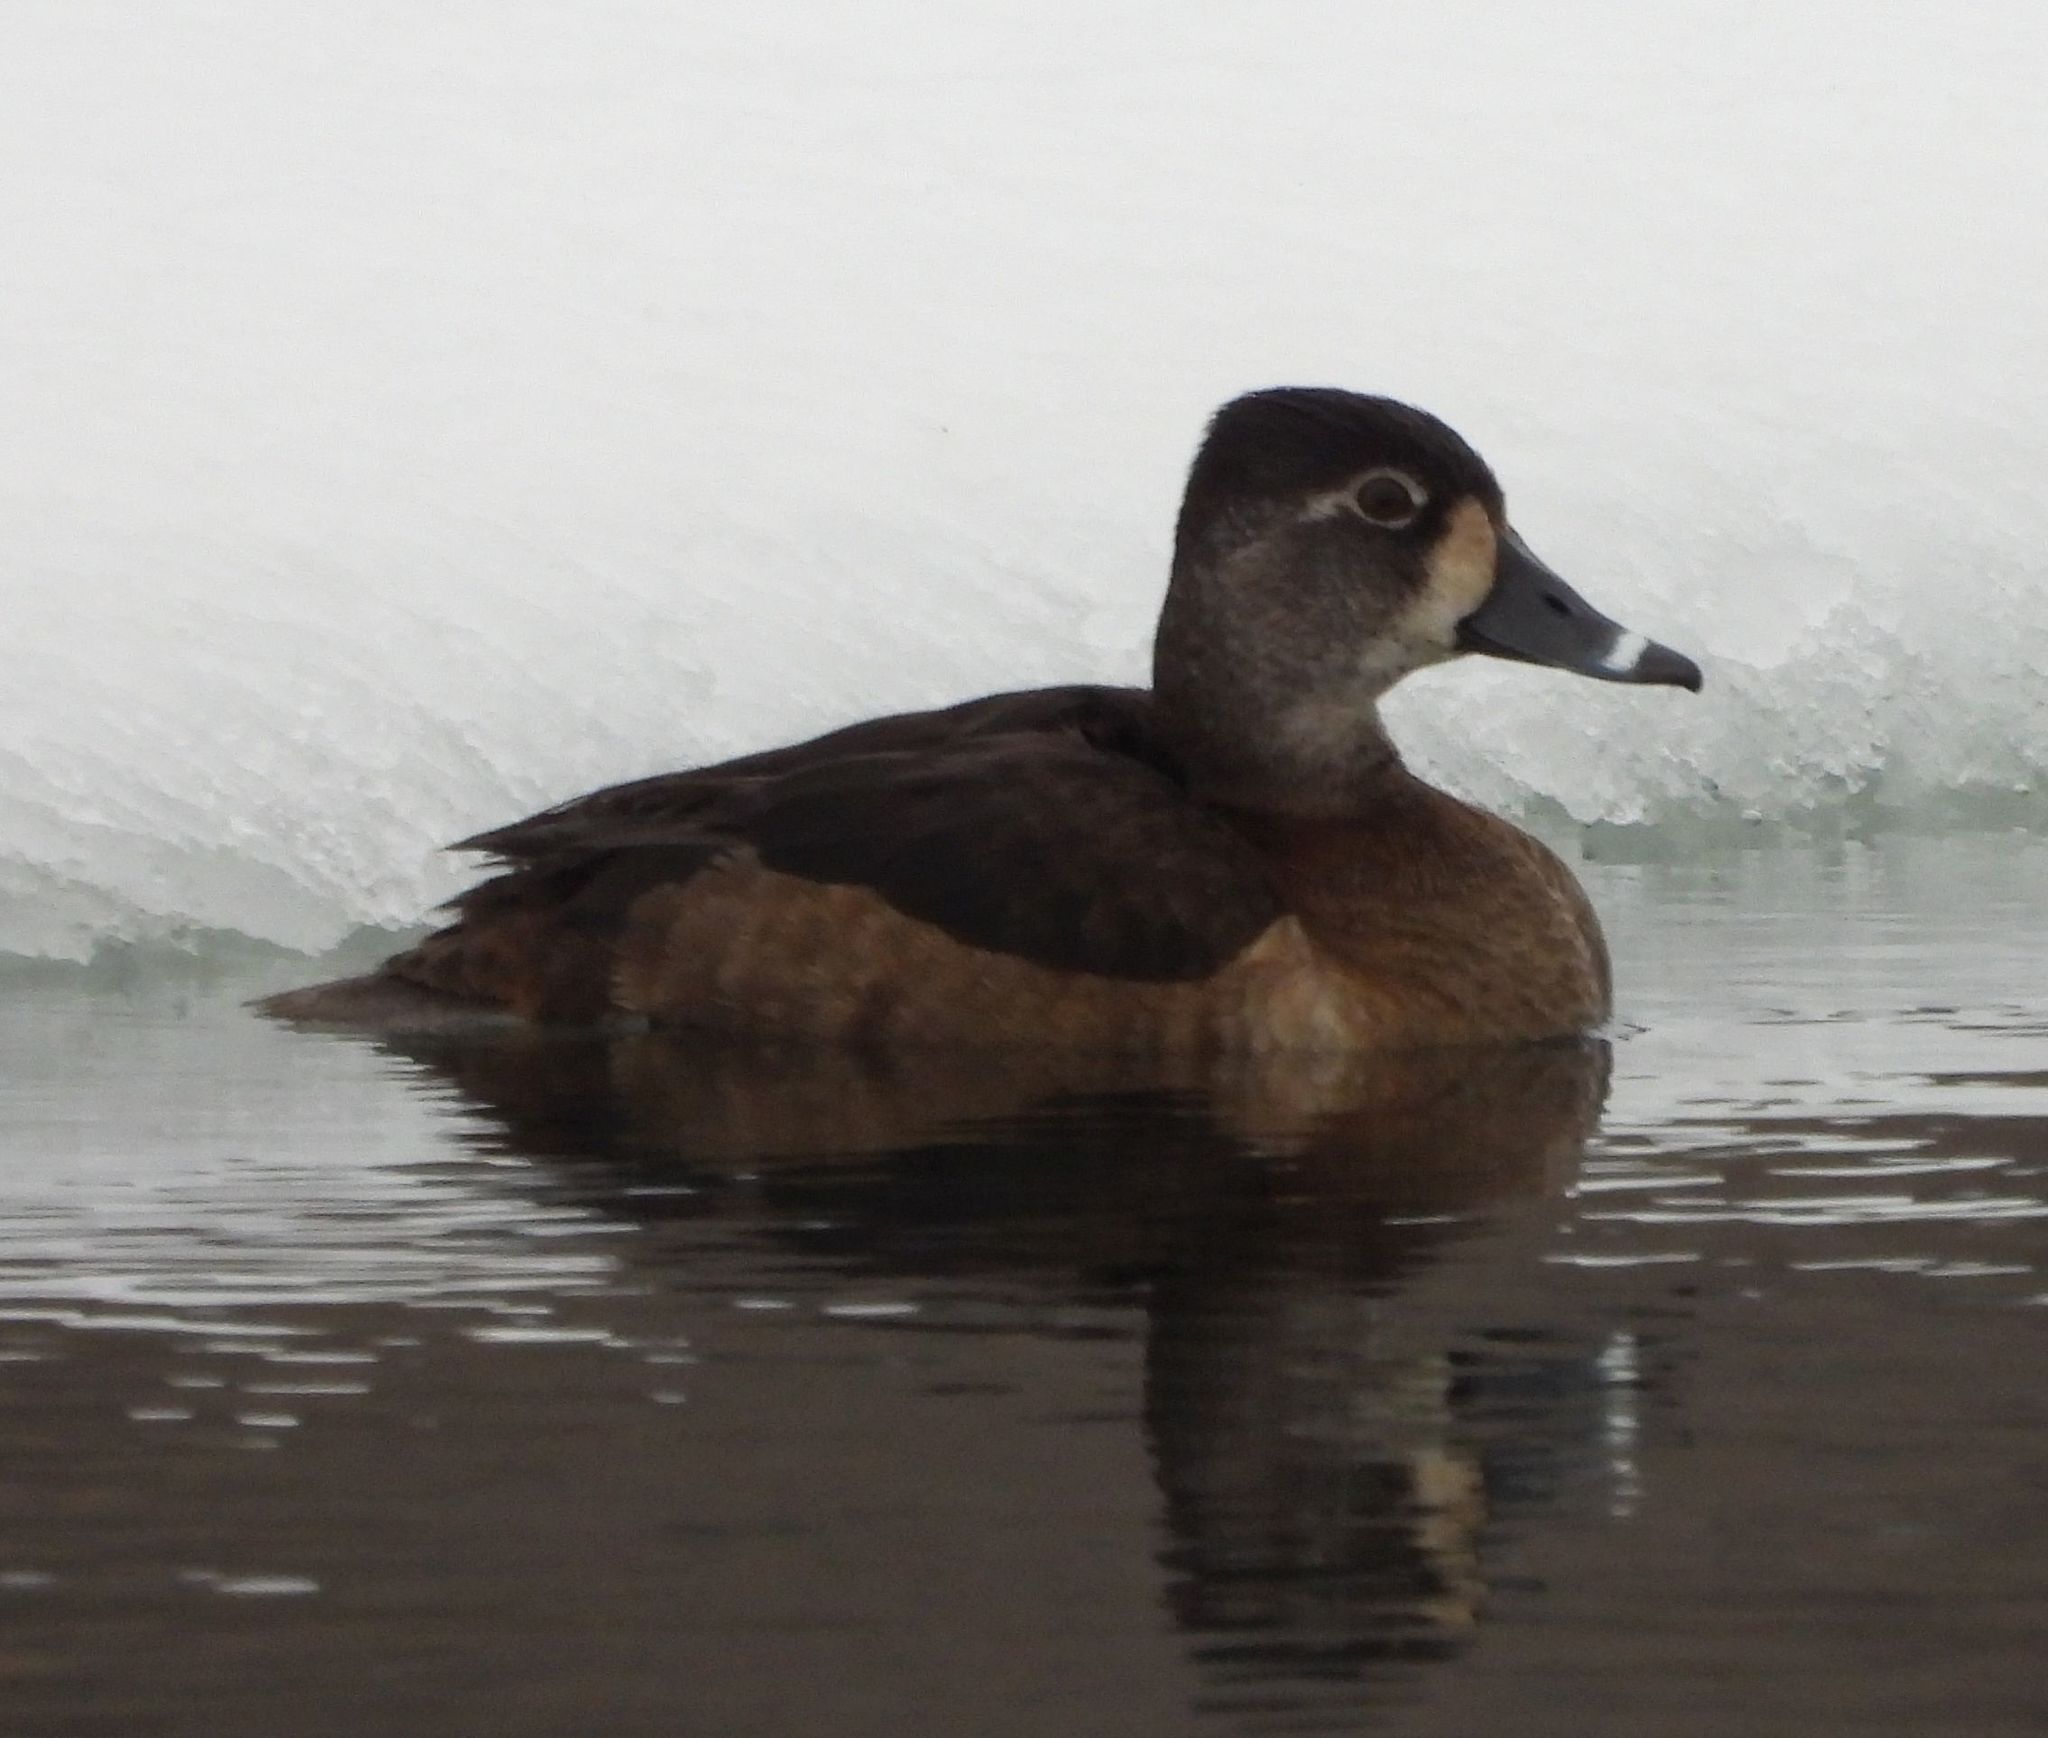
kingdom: Animalia
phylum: Chordata
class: Aves
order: Anseriformes
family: Anatidae
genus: Aythya
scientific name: Aythya collaris
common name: Ring-necked duck
